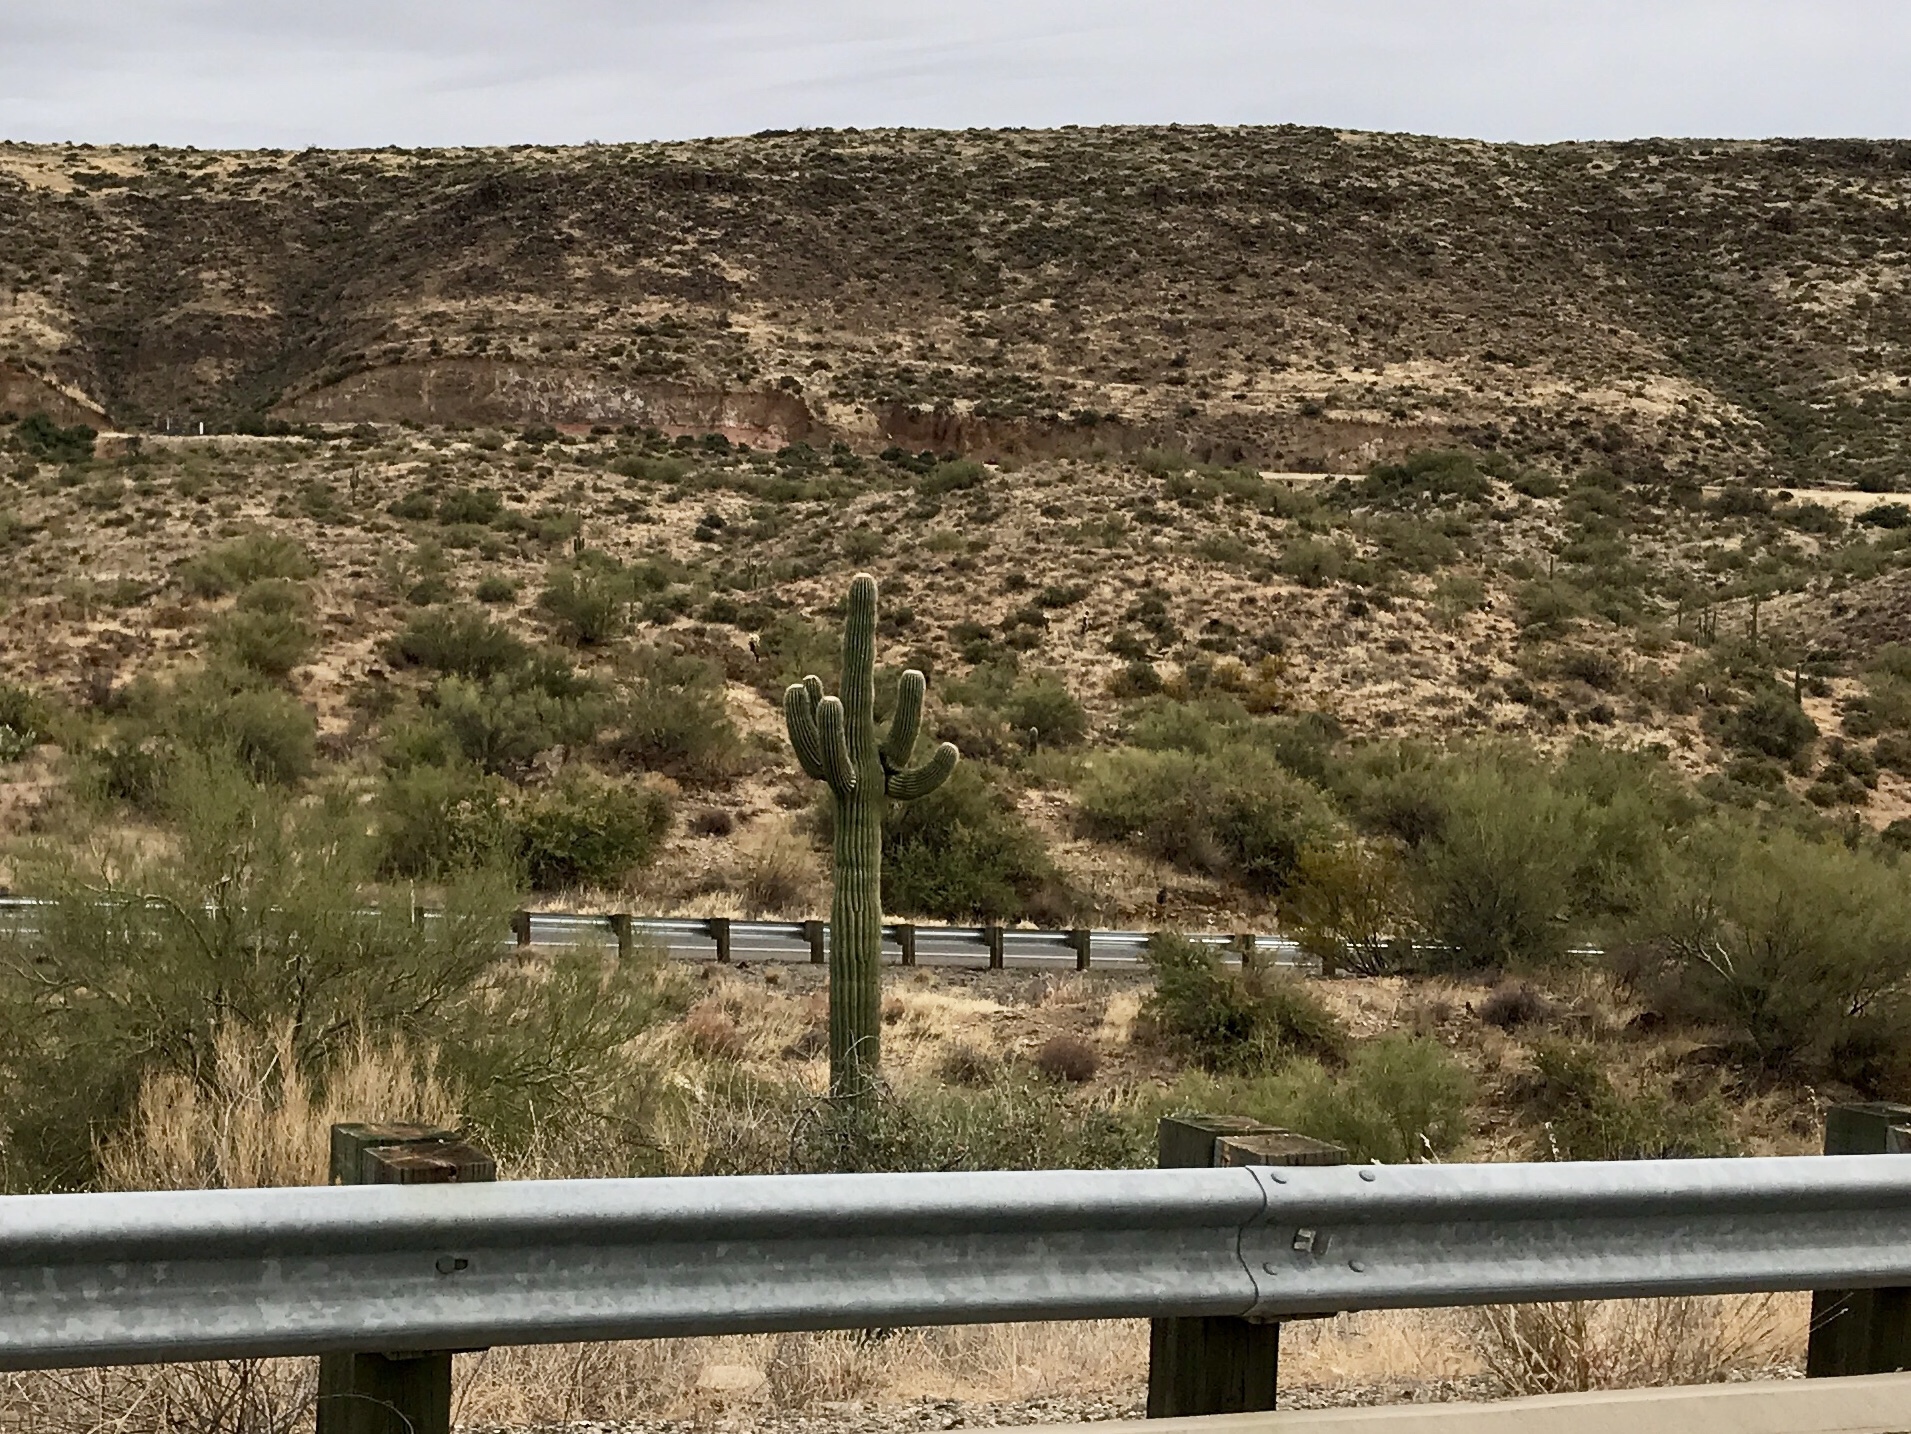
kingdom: Plantae
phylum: Tracheophyta
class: Magnoliopsida
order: Caryophyllales
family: Cactaceae
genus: Carnegiea
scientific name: Carnegiea gigantea
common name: Saguaro
